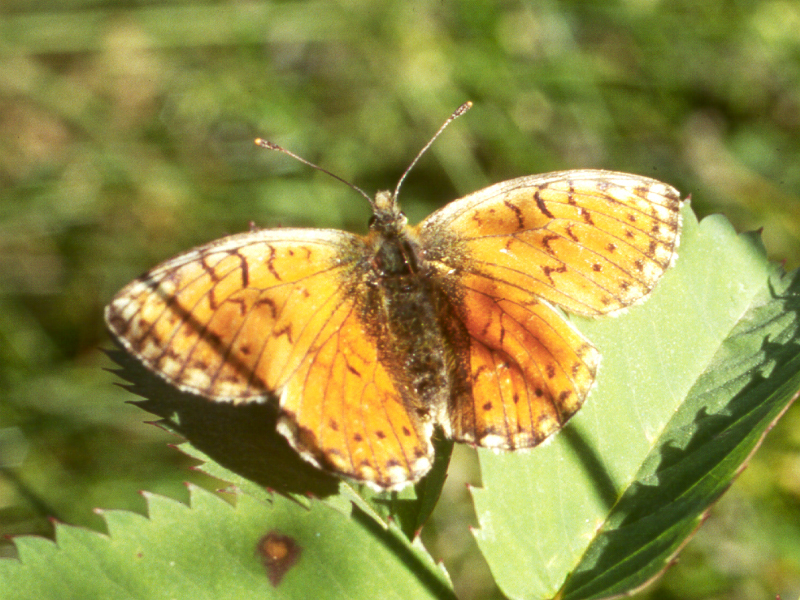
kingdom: Animalia
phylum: Arthropoda
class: Insecta
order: Lepidoptera
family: Nymphalidae
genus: Boloria
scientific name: Boloria sipora
